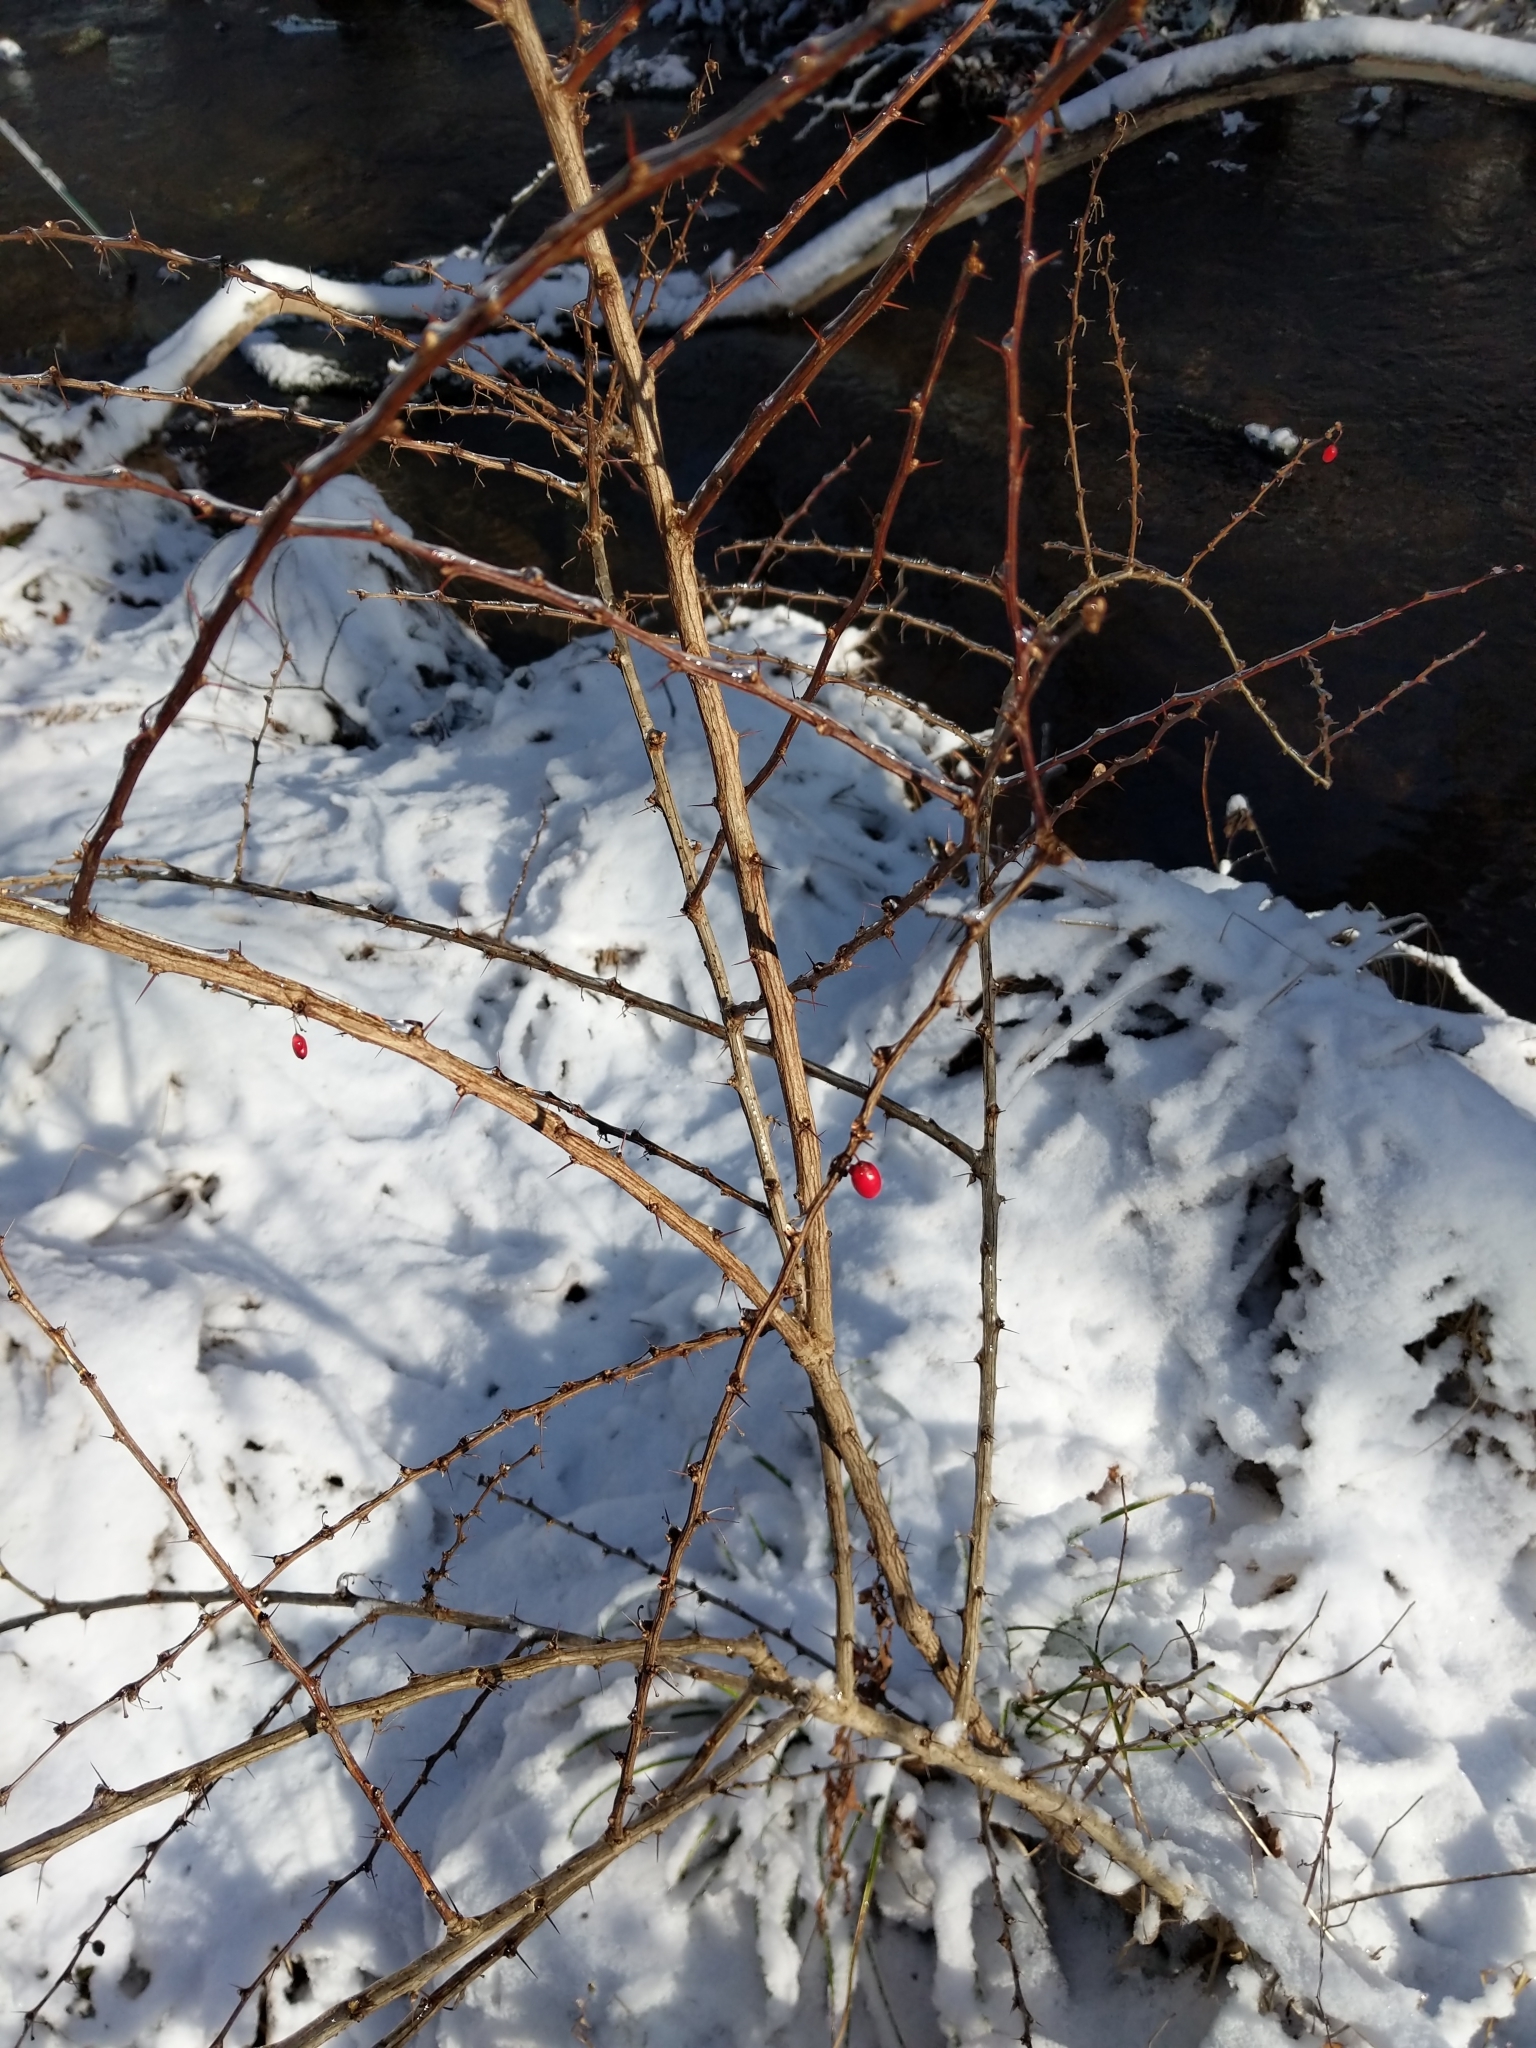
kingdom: Plantae
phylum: Tracheophyta
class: Magnoliopsida
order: Ranunculales
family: Berberidaceae
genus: Berberis
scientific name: Berberis thunbergii
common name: Japanese barberry
